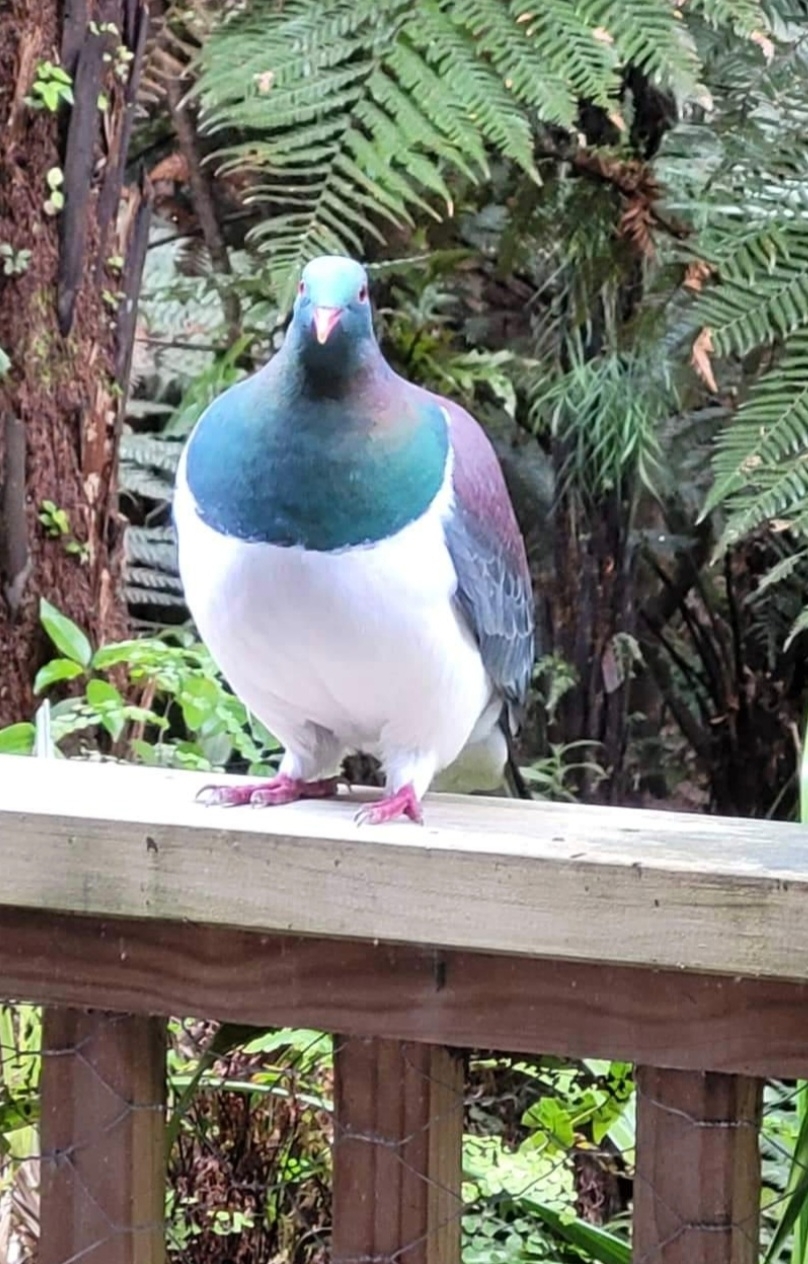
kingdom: Animalia
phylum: Chordata
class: Aves
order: Columbiformes
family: Columbidae
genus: Hemiphaga
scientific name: Hemiphaga novaeseelandiae
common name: New zealand pigeon
